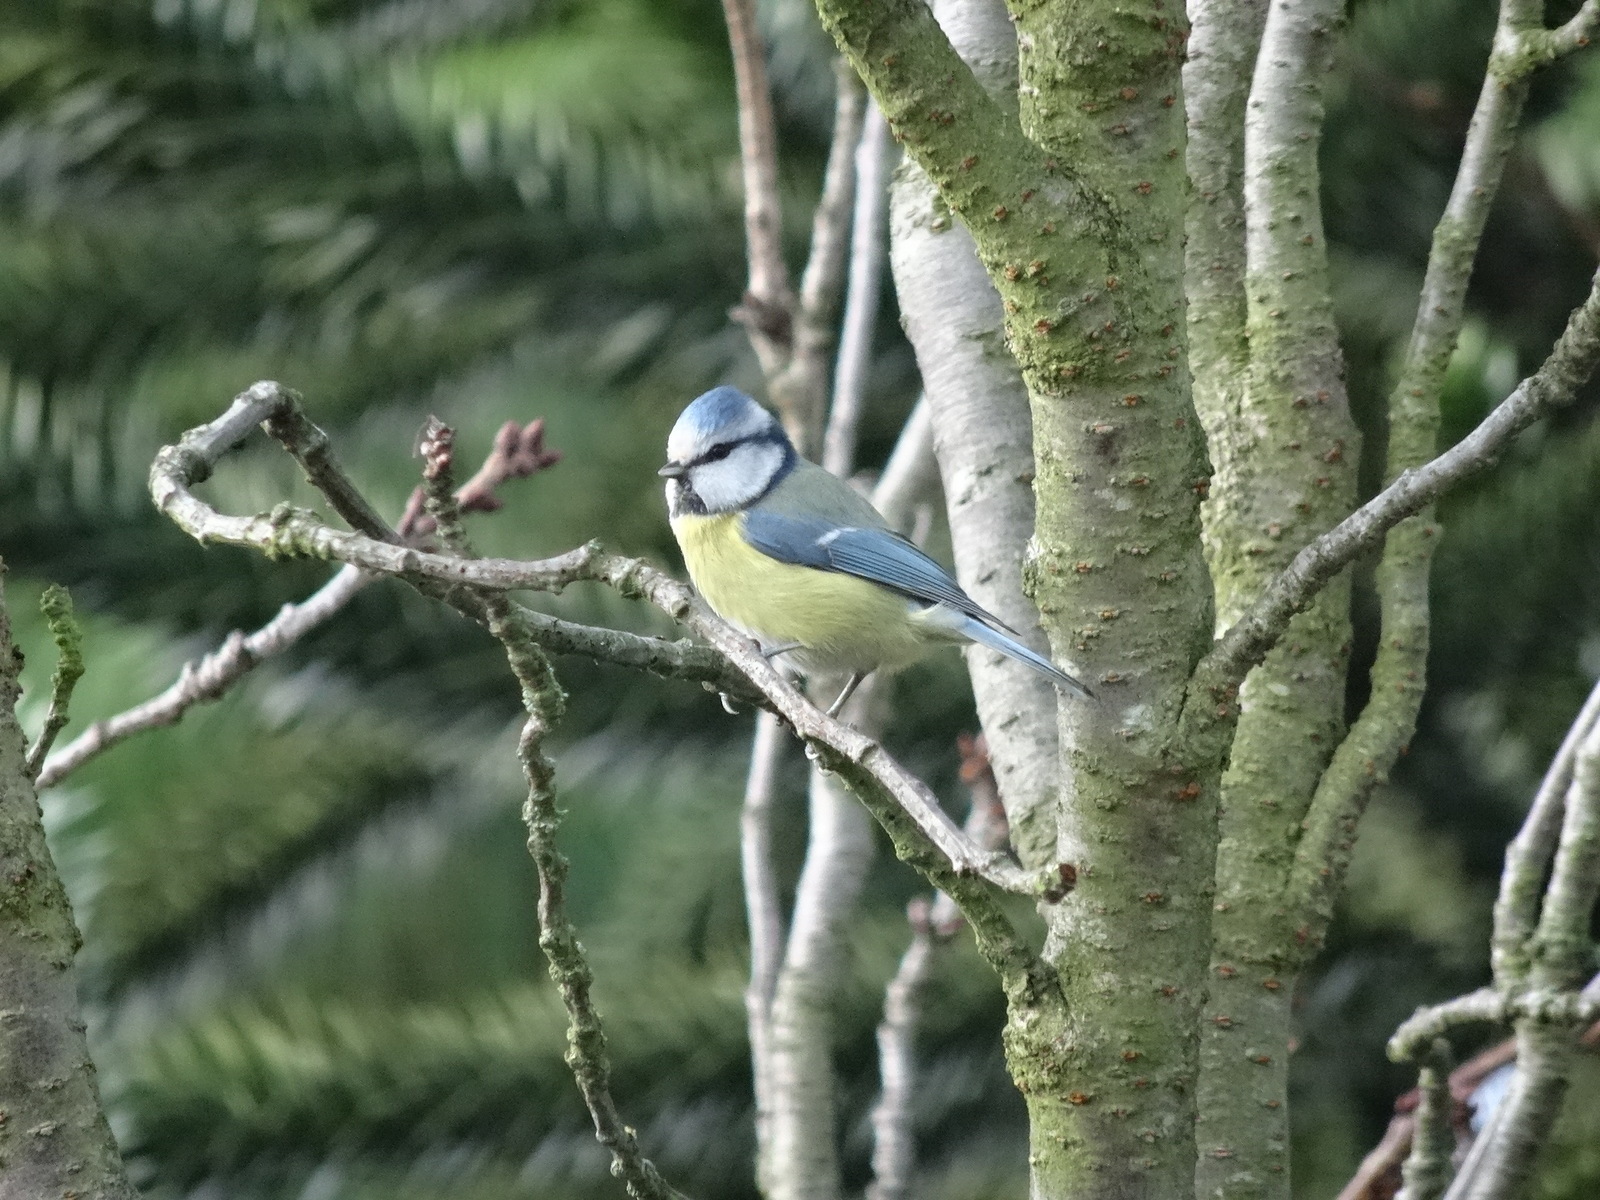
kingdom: Animalia
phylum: Chordata
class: Aves
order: Passeriformes
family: Paridae
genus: Cyanistes
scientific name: Cyanistes caeruleus
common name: Eurasian blue tit
